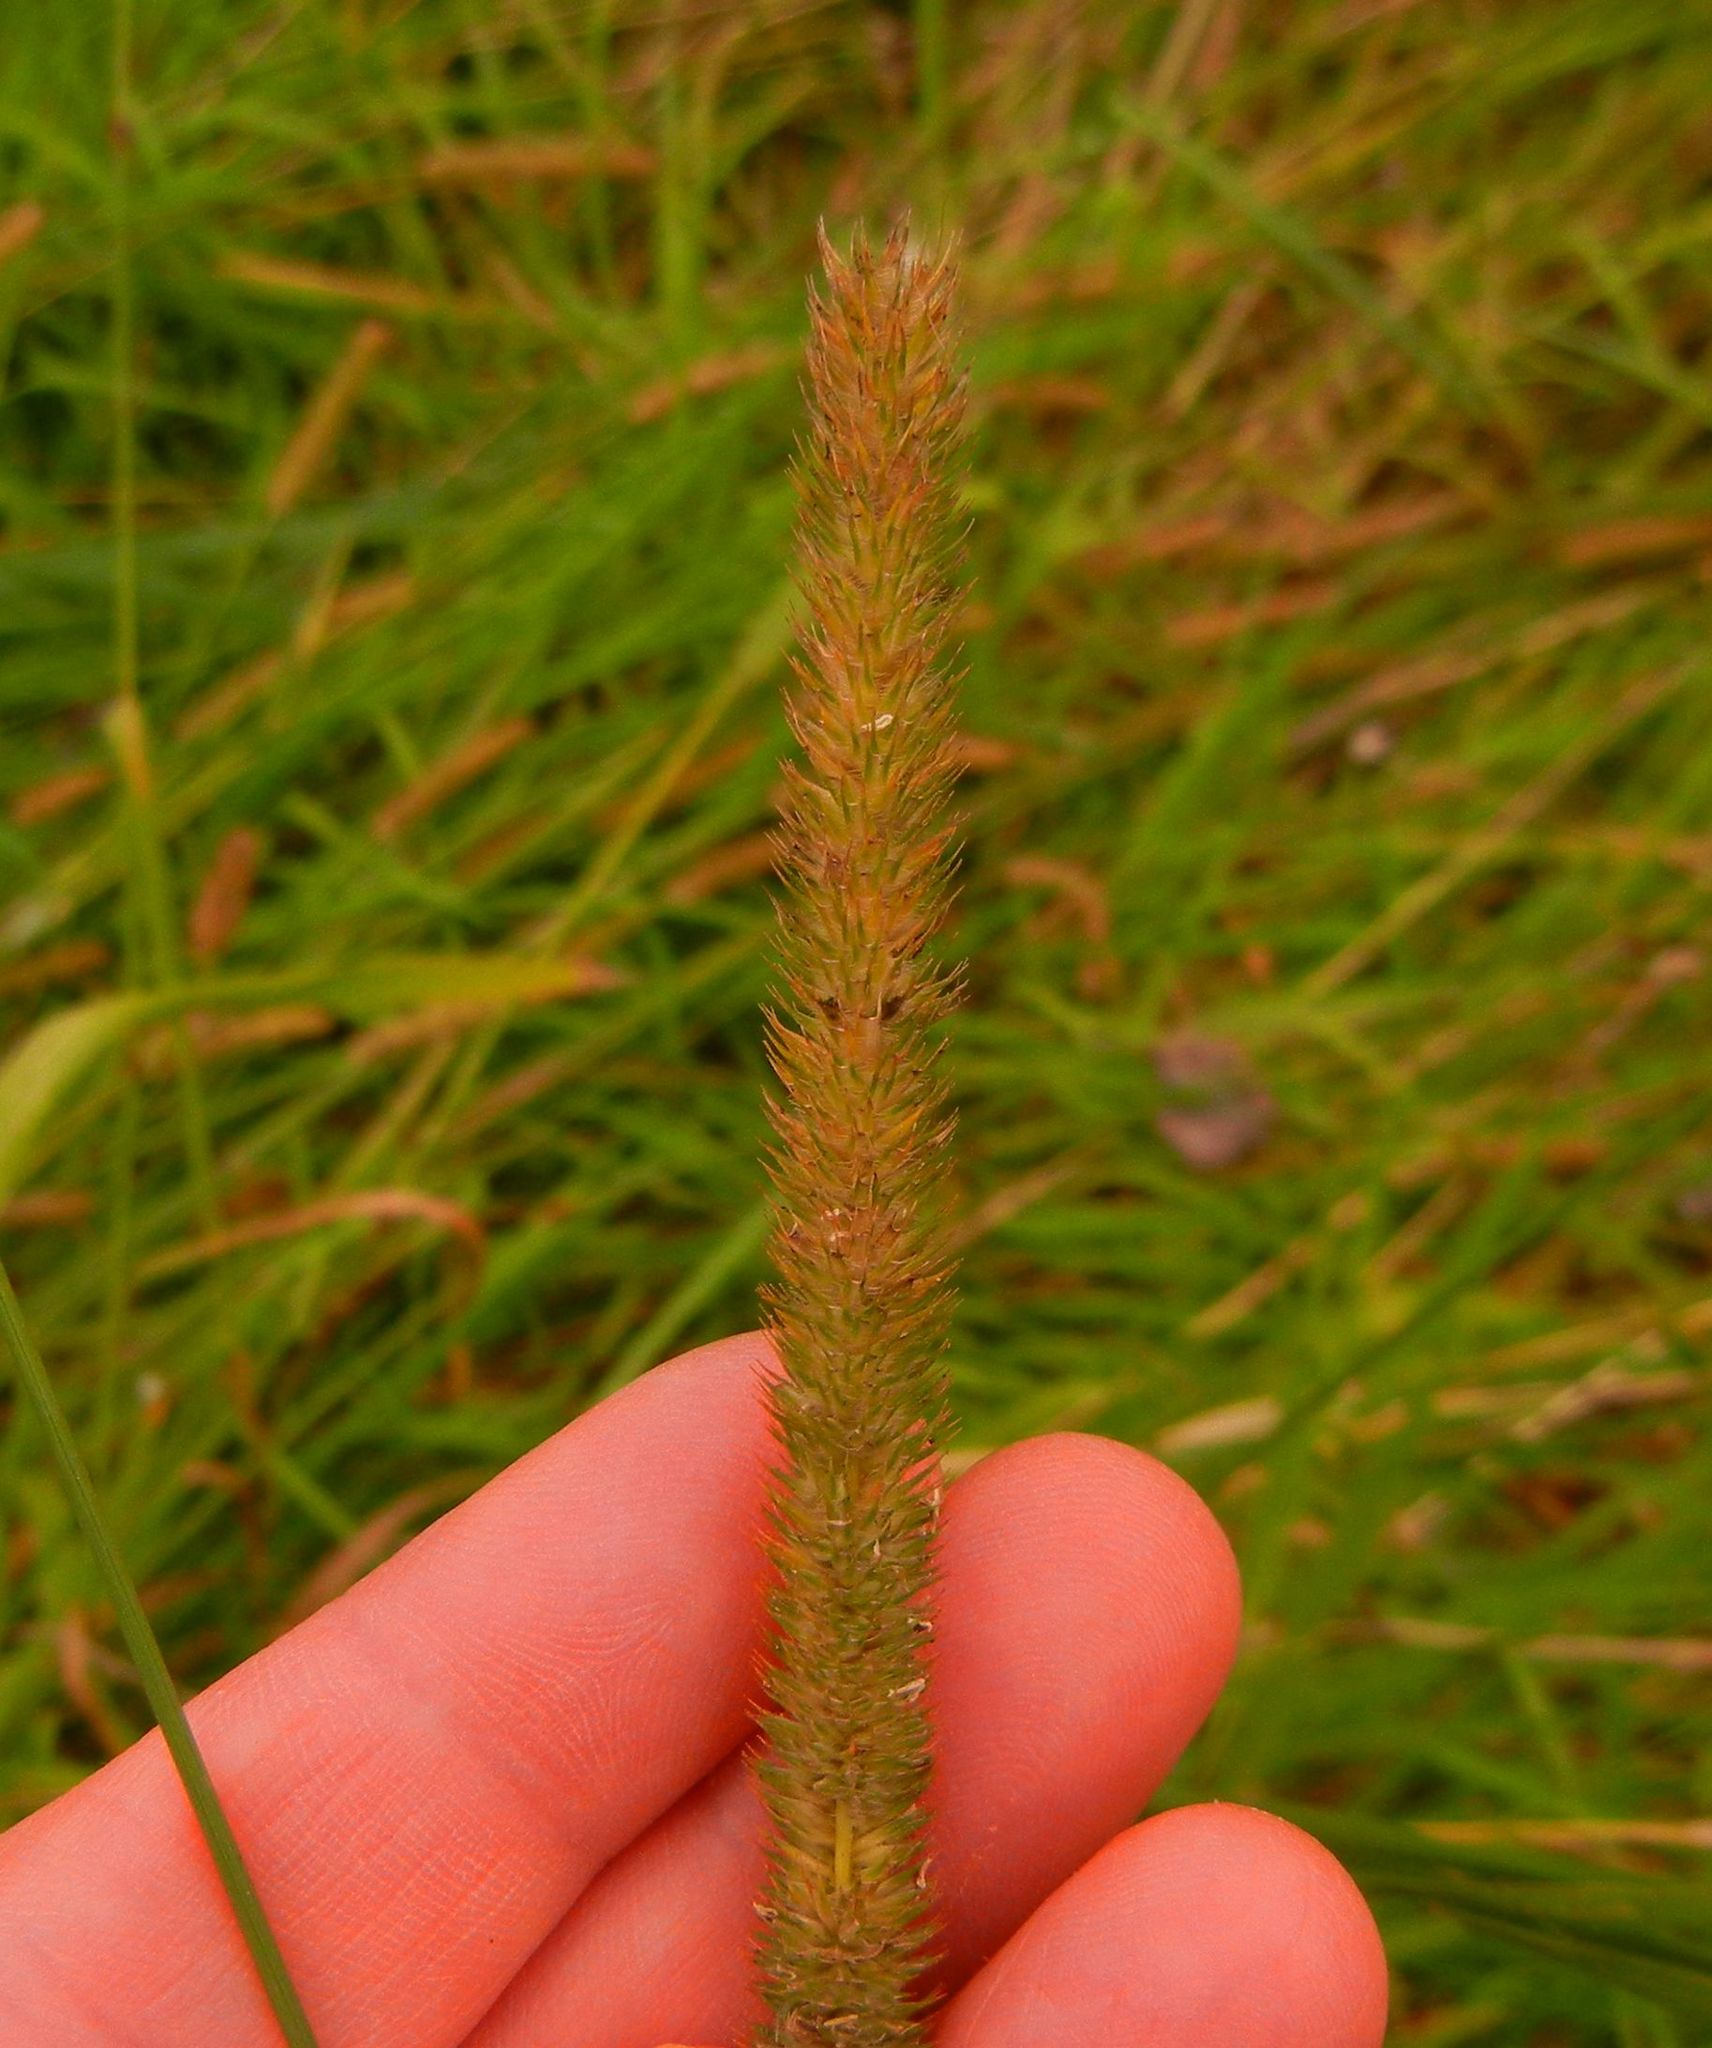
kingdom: Plantae
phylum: Tracheophyta
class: Liliopsida
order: Poales
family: Poaceae
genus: Phleum
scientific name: Phleum pratense
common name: Timothy grass
